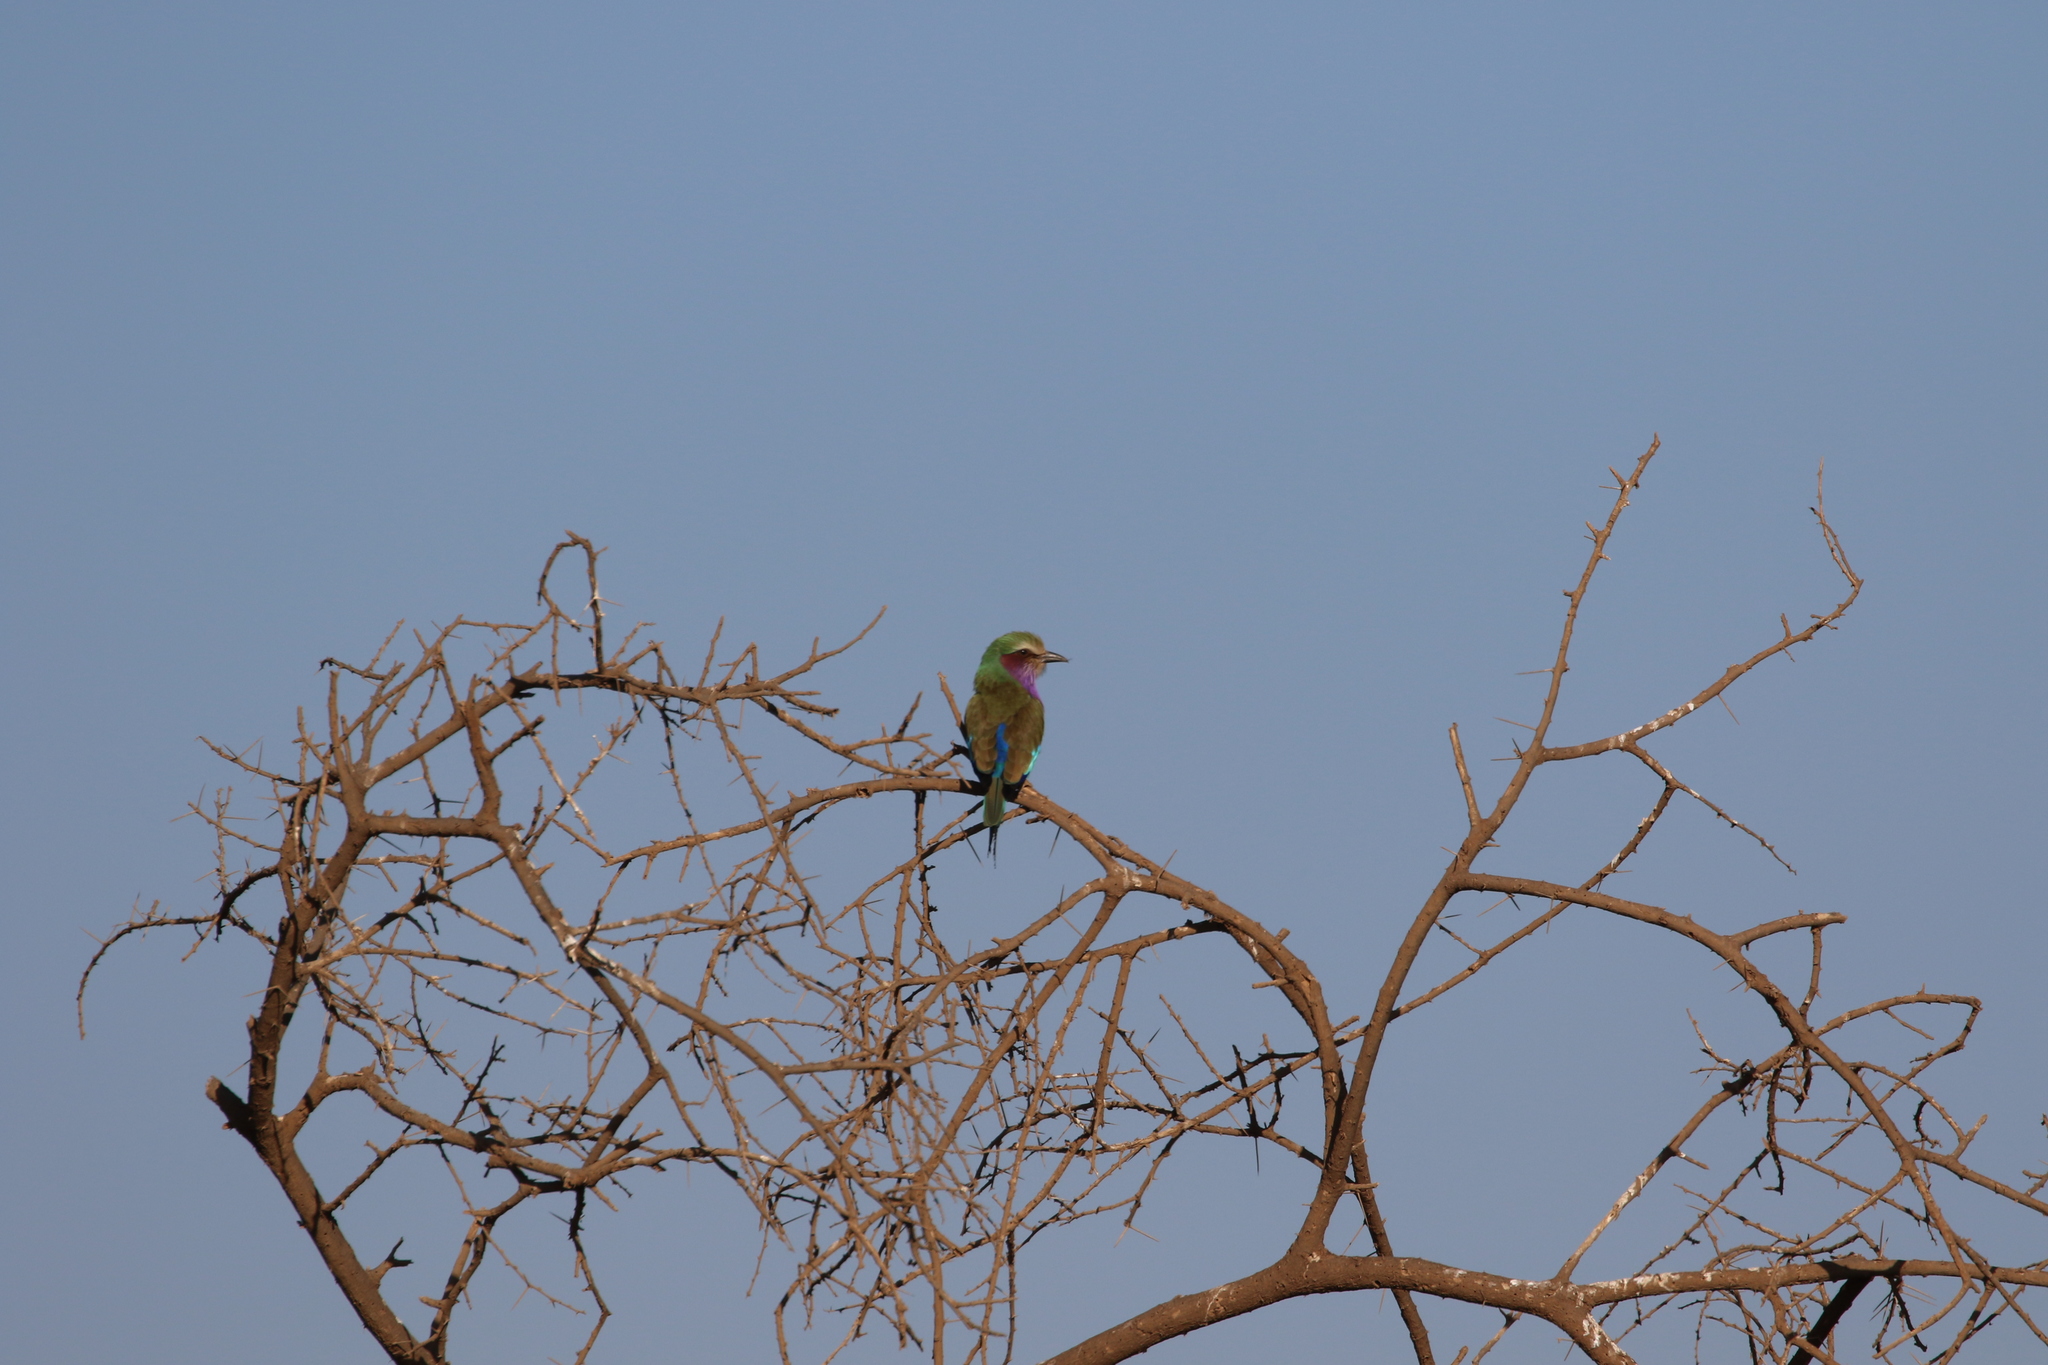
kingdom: Animalia
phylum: Chordata
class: Aves
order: Coraciiformes
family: Coraciidae
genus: Coracias
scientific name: Coracias caudatus
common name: Lilac-breasted roller
